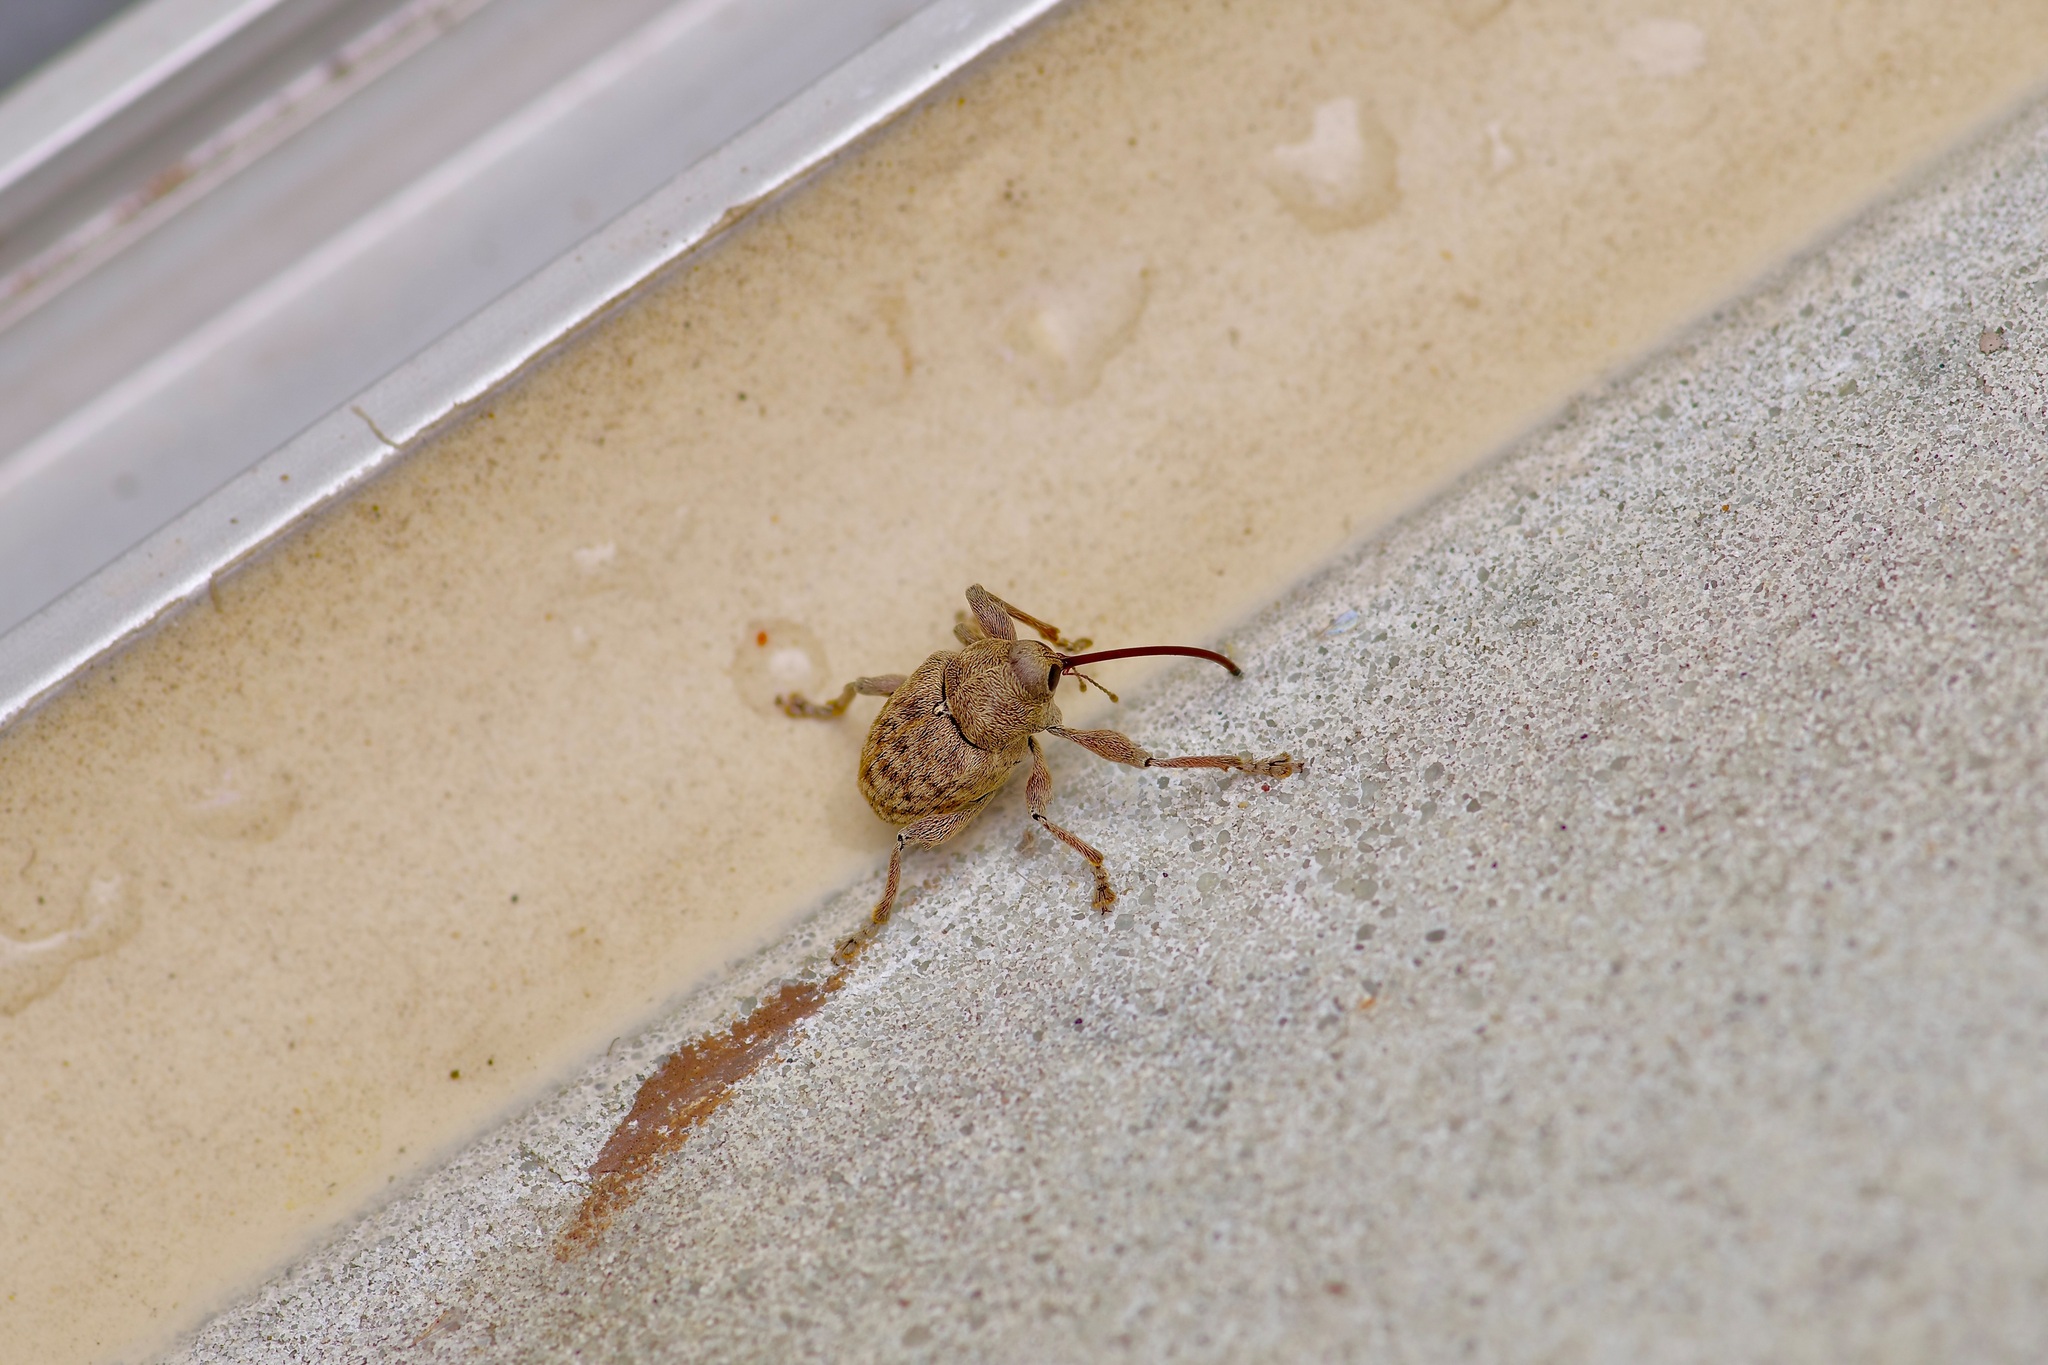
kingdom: Animalia
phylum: Arthropoda
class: Insecta
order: Coleoptera
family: Curculionidae
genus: Curculio
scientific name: Curculio
